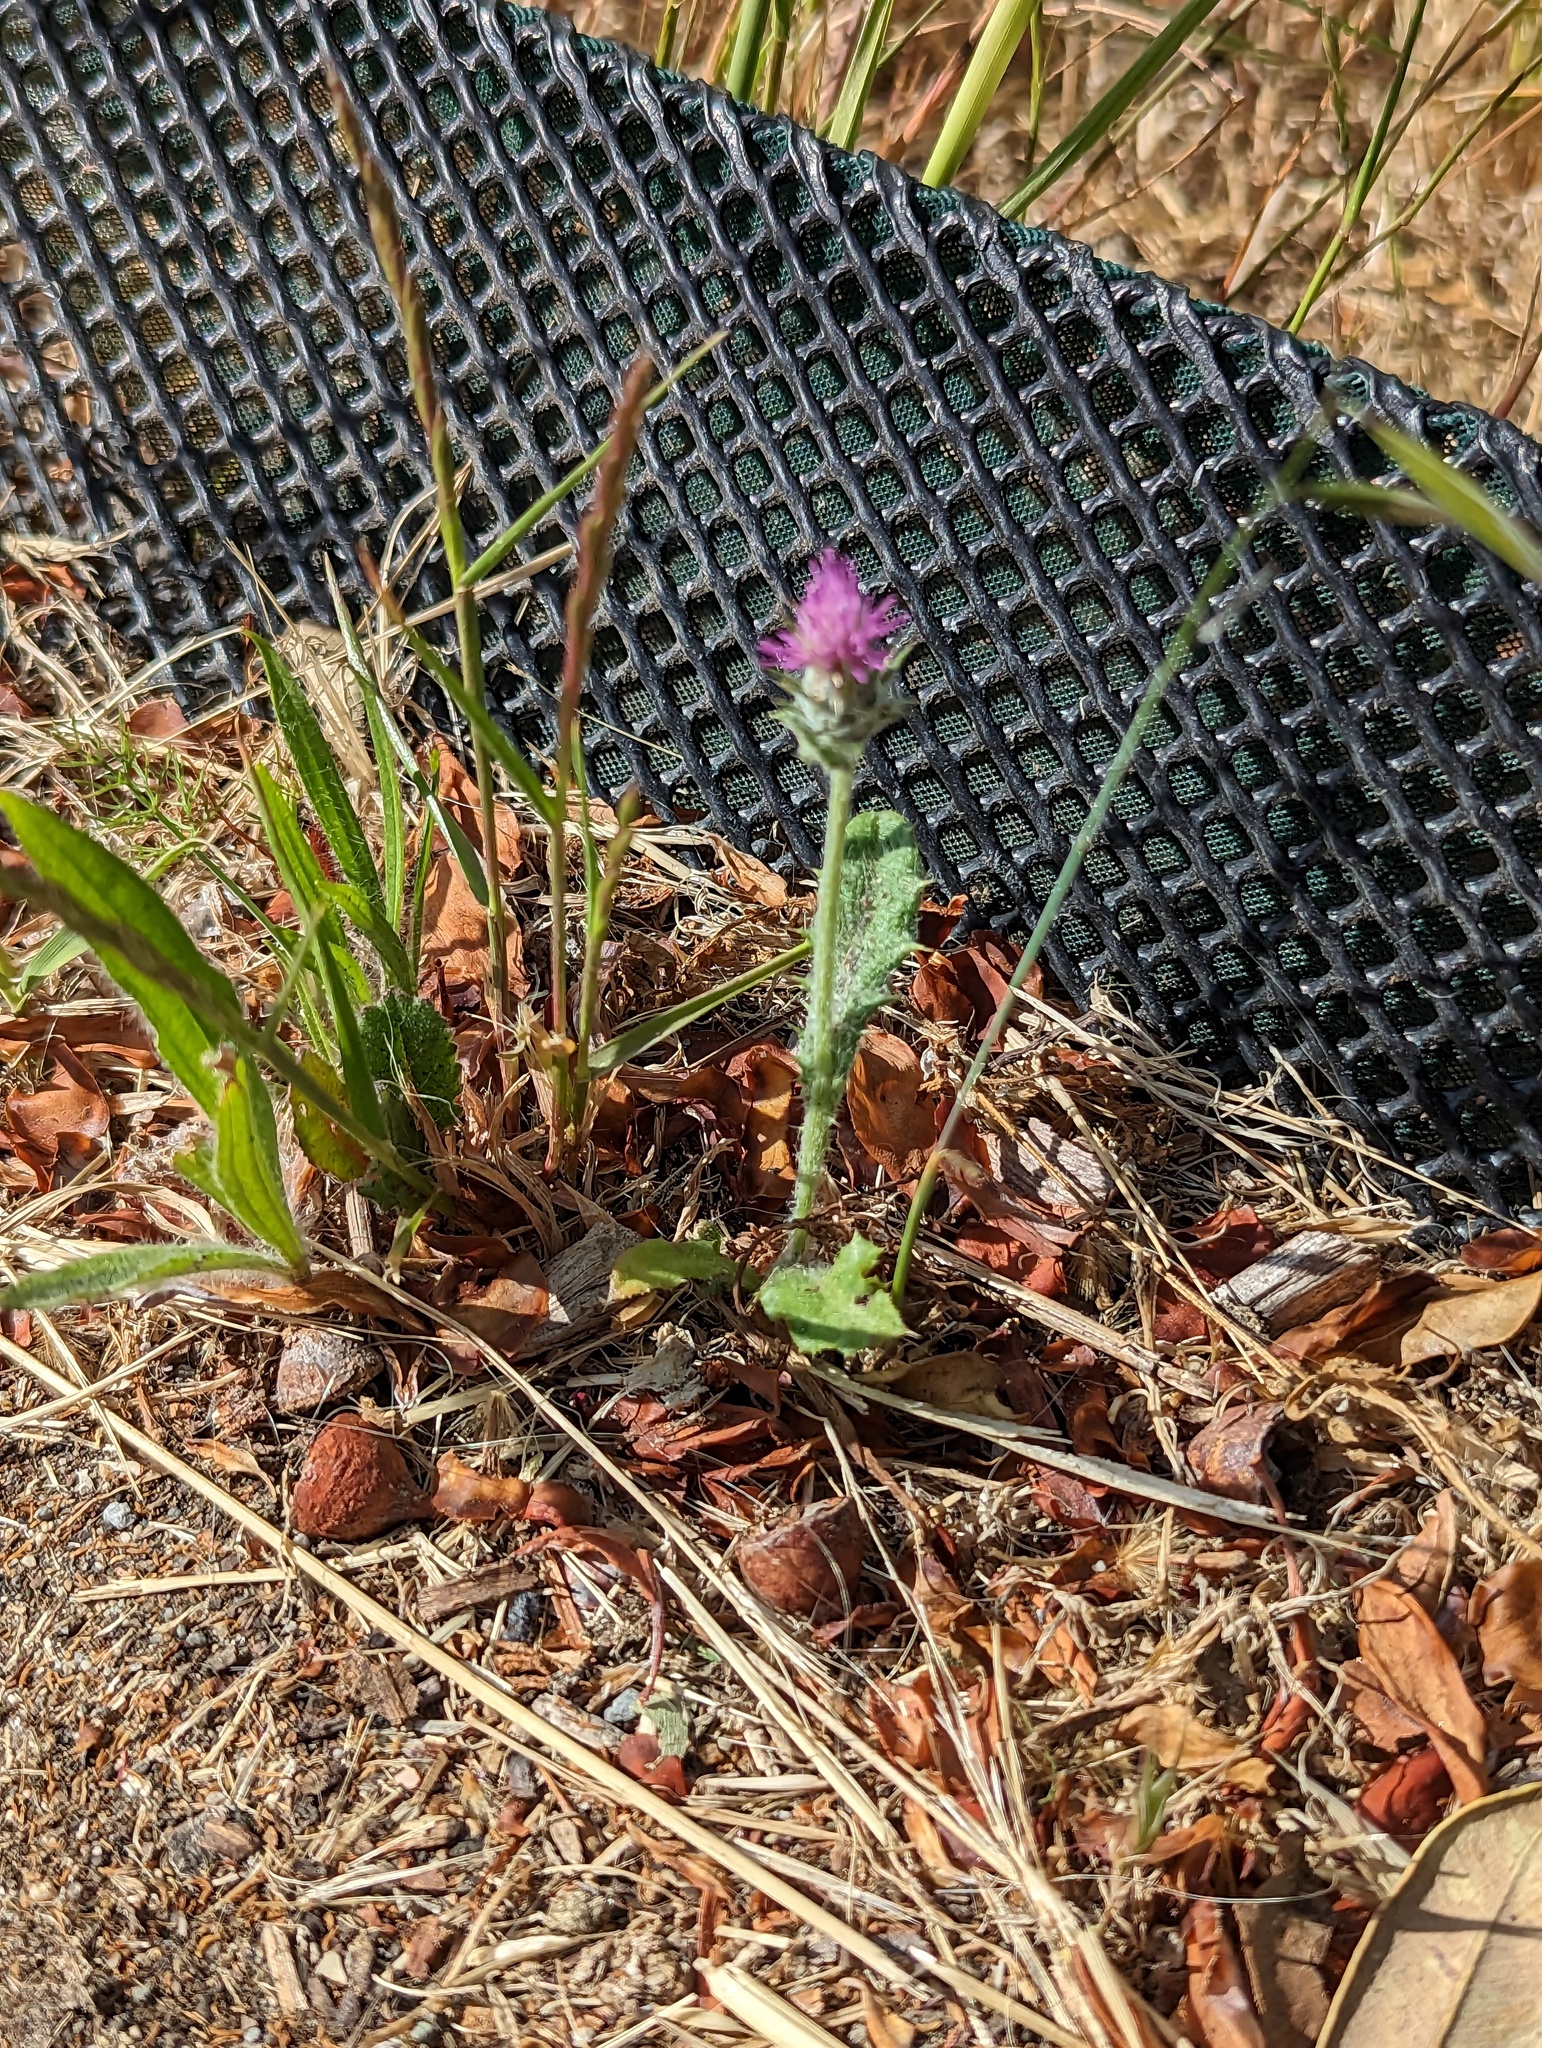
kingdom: Plantae
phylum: Tracheophyta
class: Magnoliopsida
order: Asterales
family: Asteraceae
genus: Carduus
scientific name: Carduus pycnocephalus
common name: Plymouth thistle
